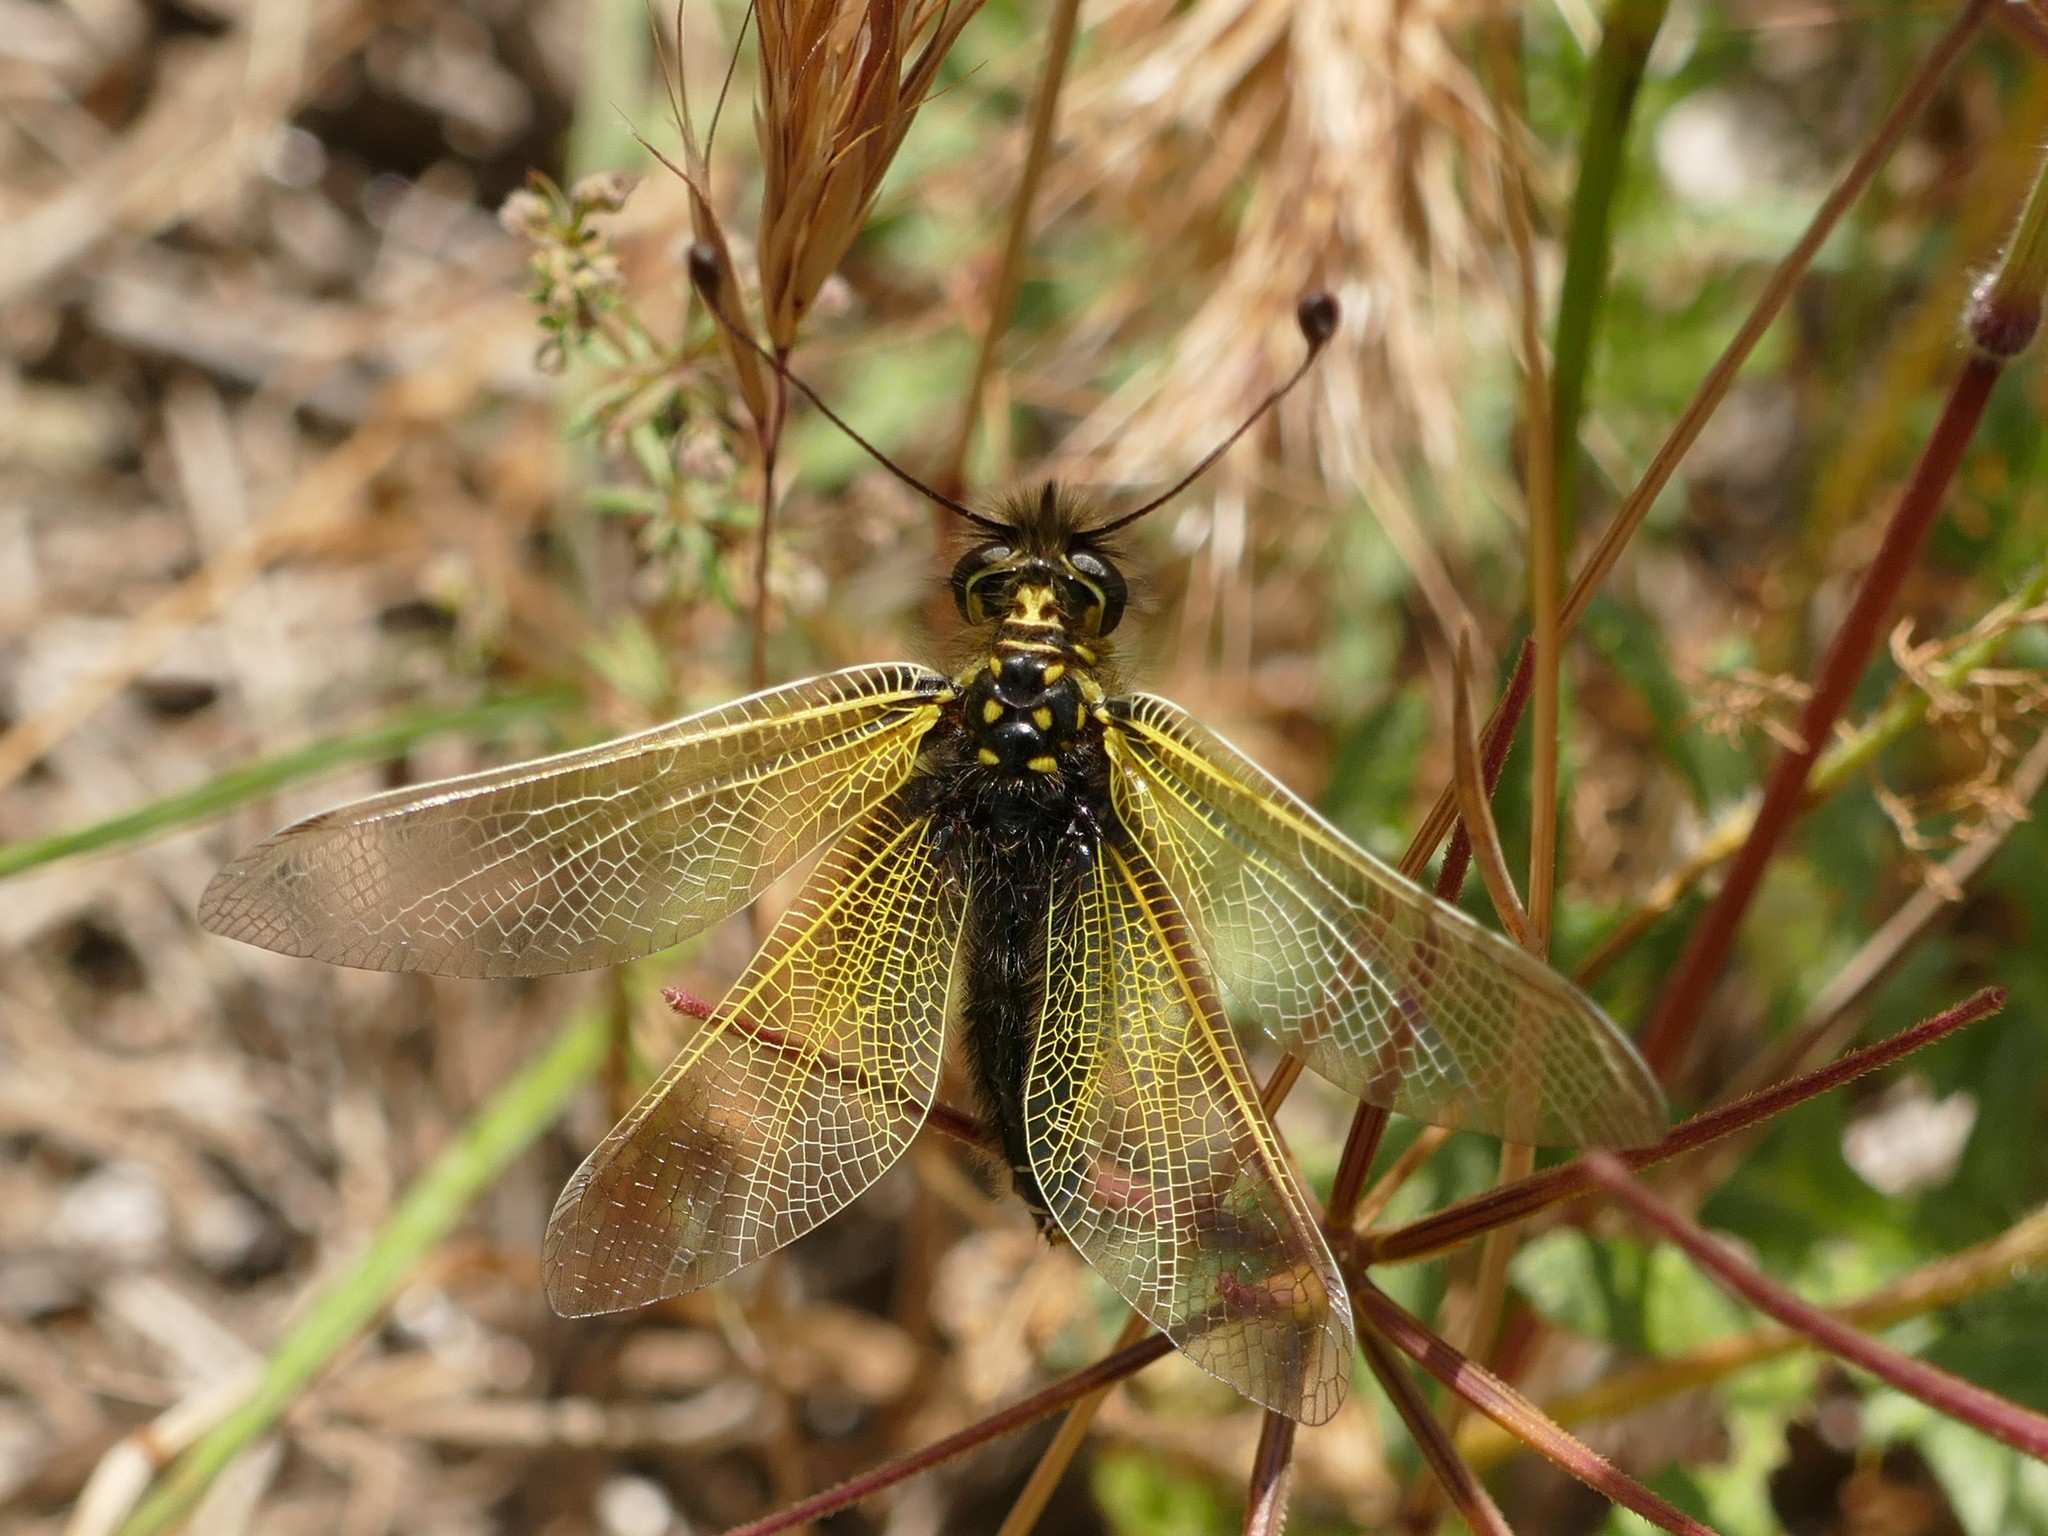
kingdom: Animalia
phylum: Arthropoda
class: Insecta
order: Neuroptera
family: Ascalaphidae
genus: Libelloides
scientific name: Libelloides ictericus
